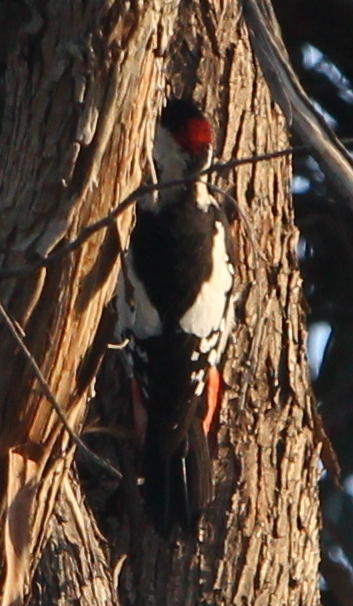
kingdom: Animalia
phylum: Chordata
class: Aves
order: Piciformes
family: Picidae
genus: Dendrocopos
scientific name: Dendrocopos syriacus
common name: Syrian woodpecker
